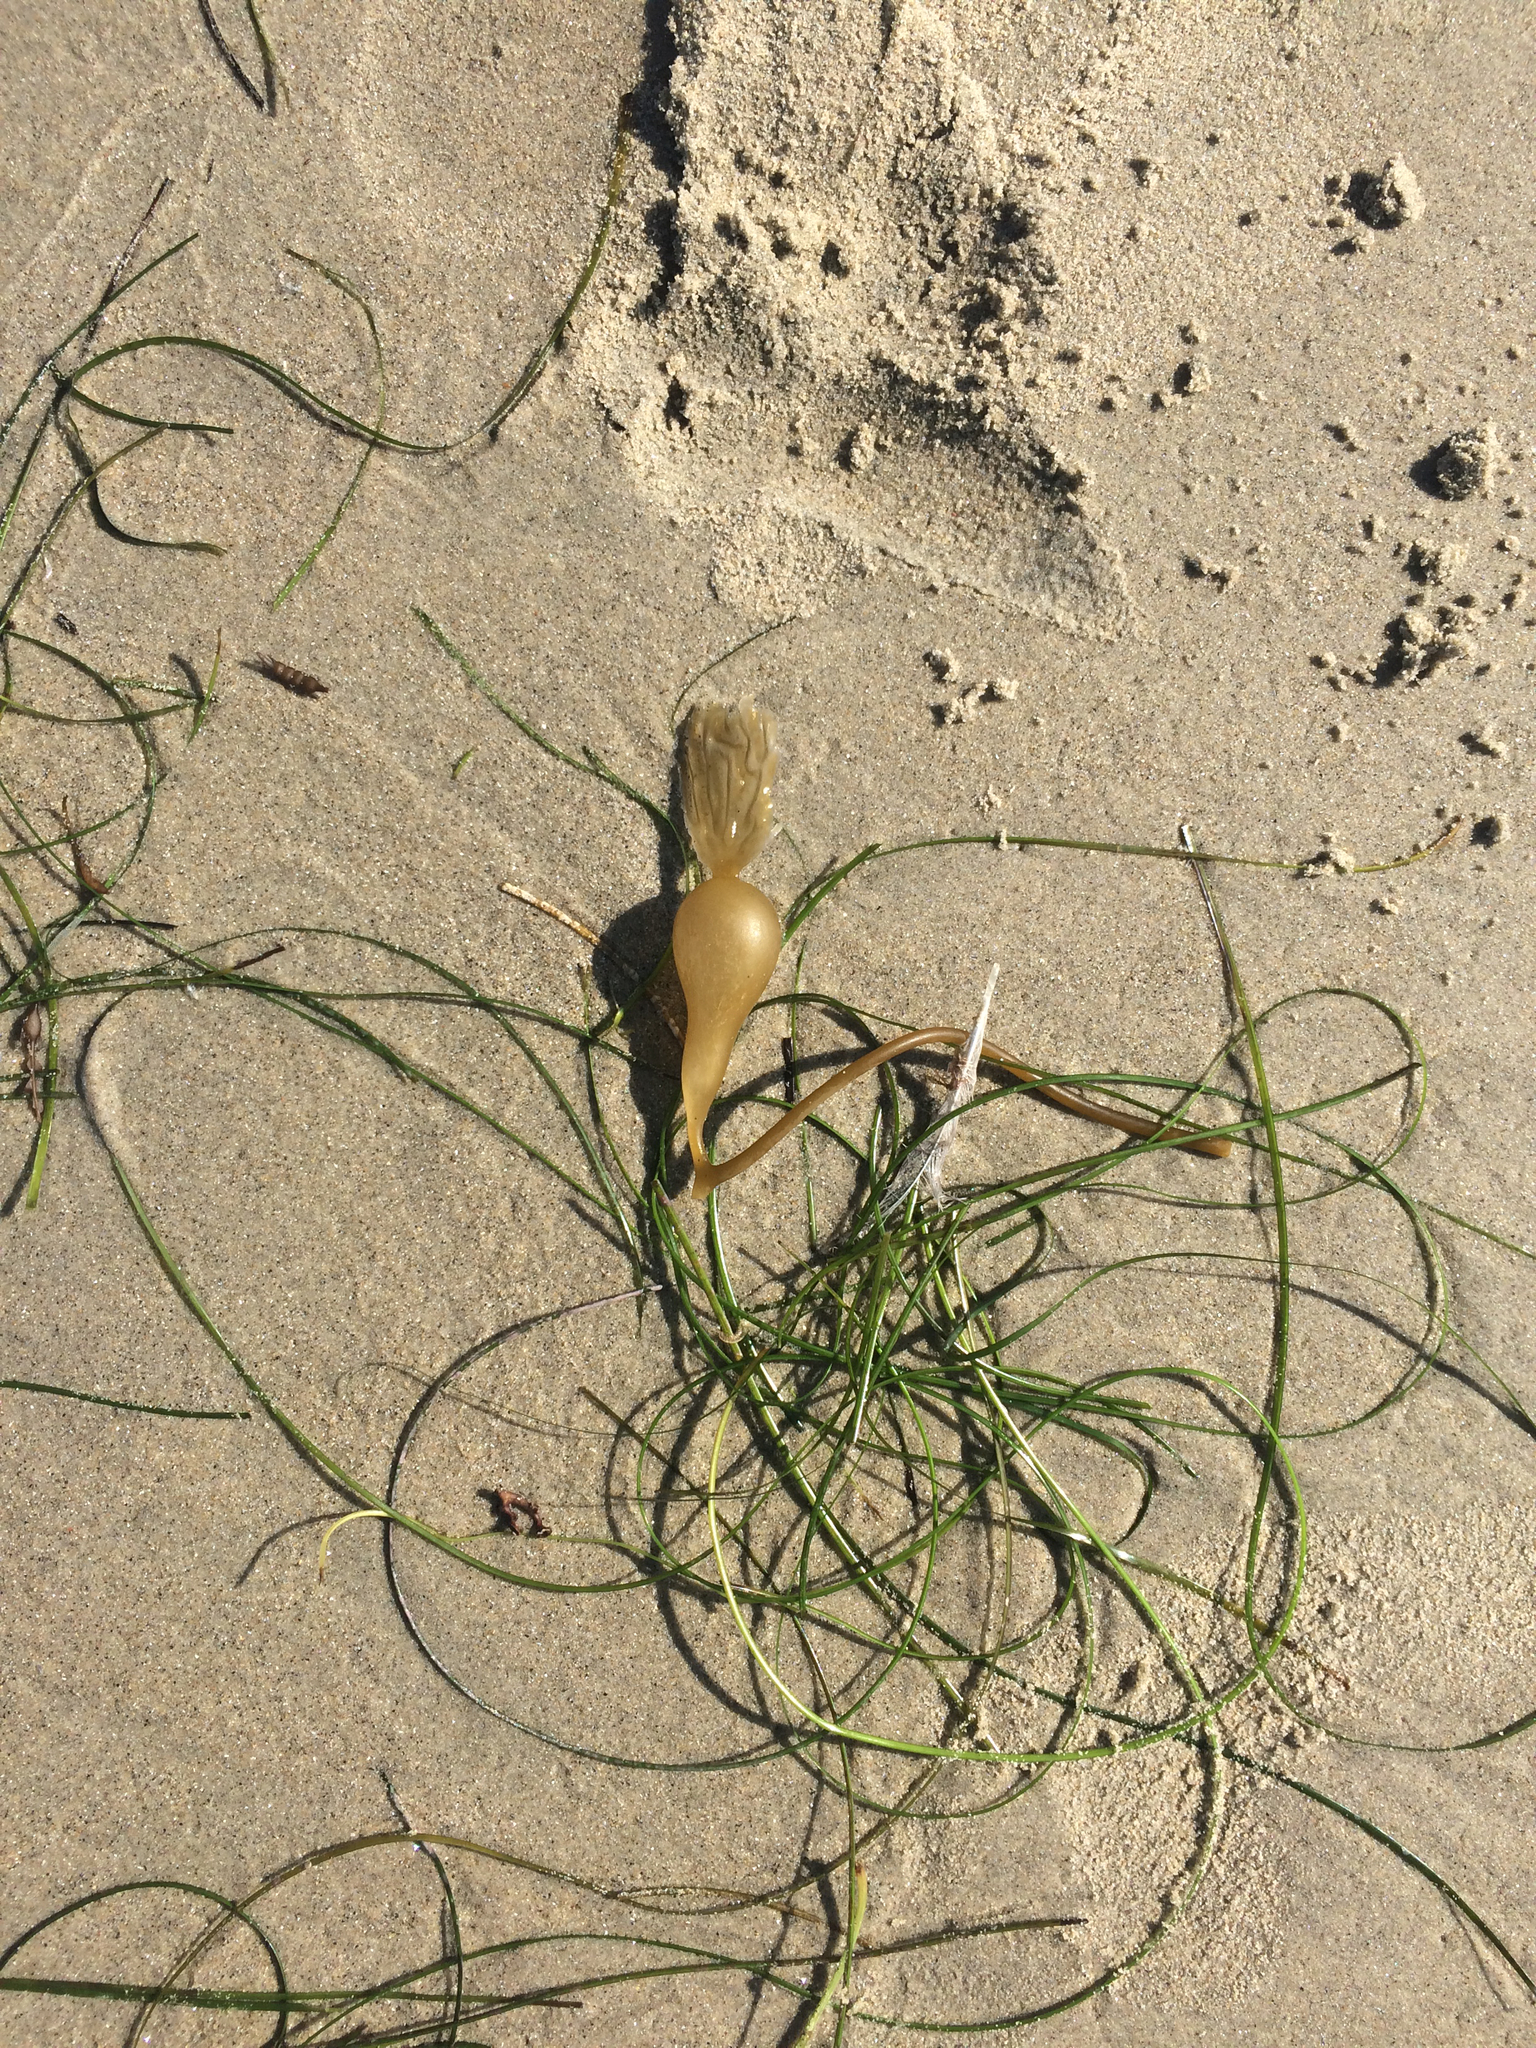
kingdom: Chromista
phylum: Ochrophyta
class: Phaeophyceae
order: Laminariales
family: Laminariaceae
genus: Macrocystis
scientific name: Macrocystis pyrifera
